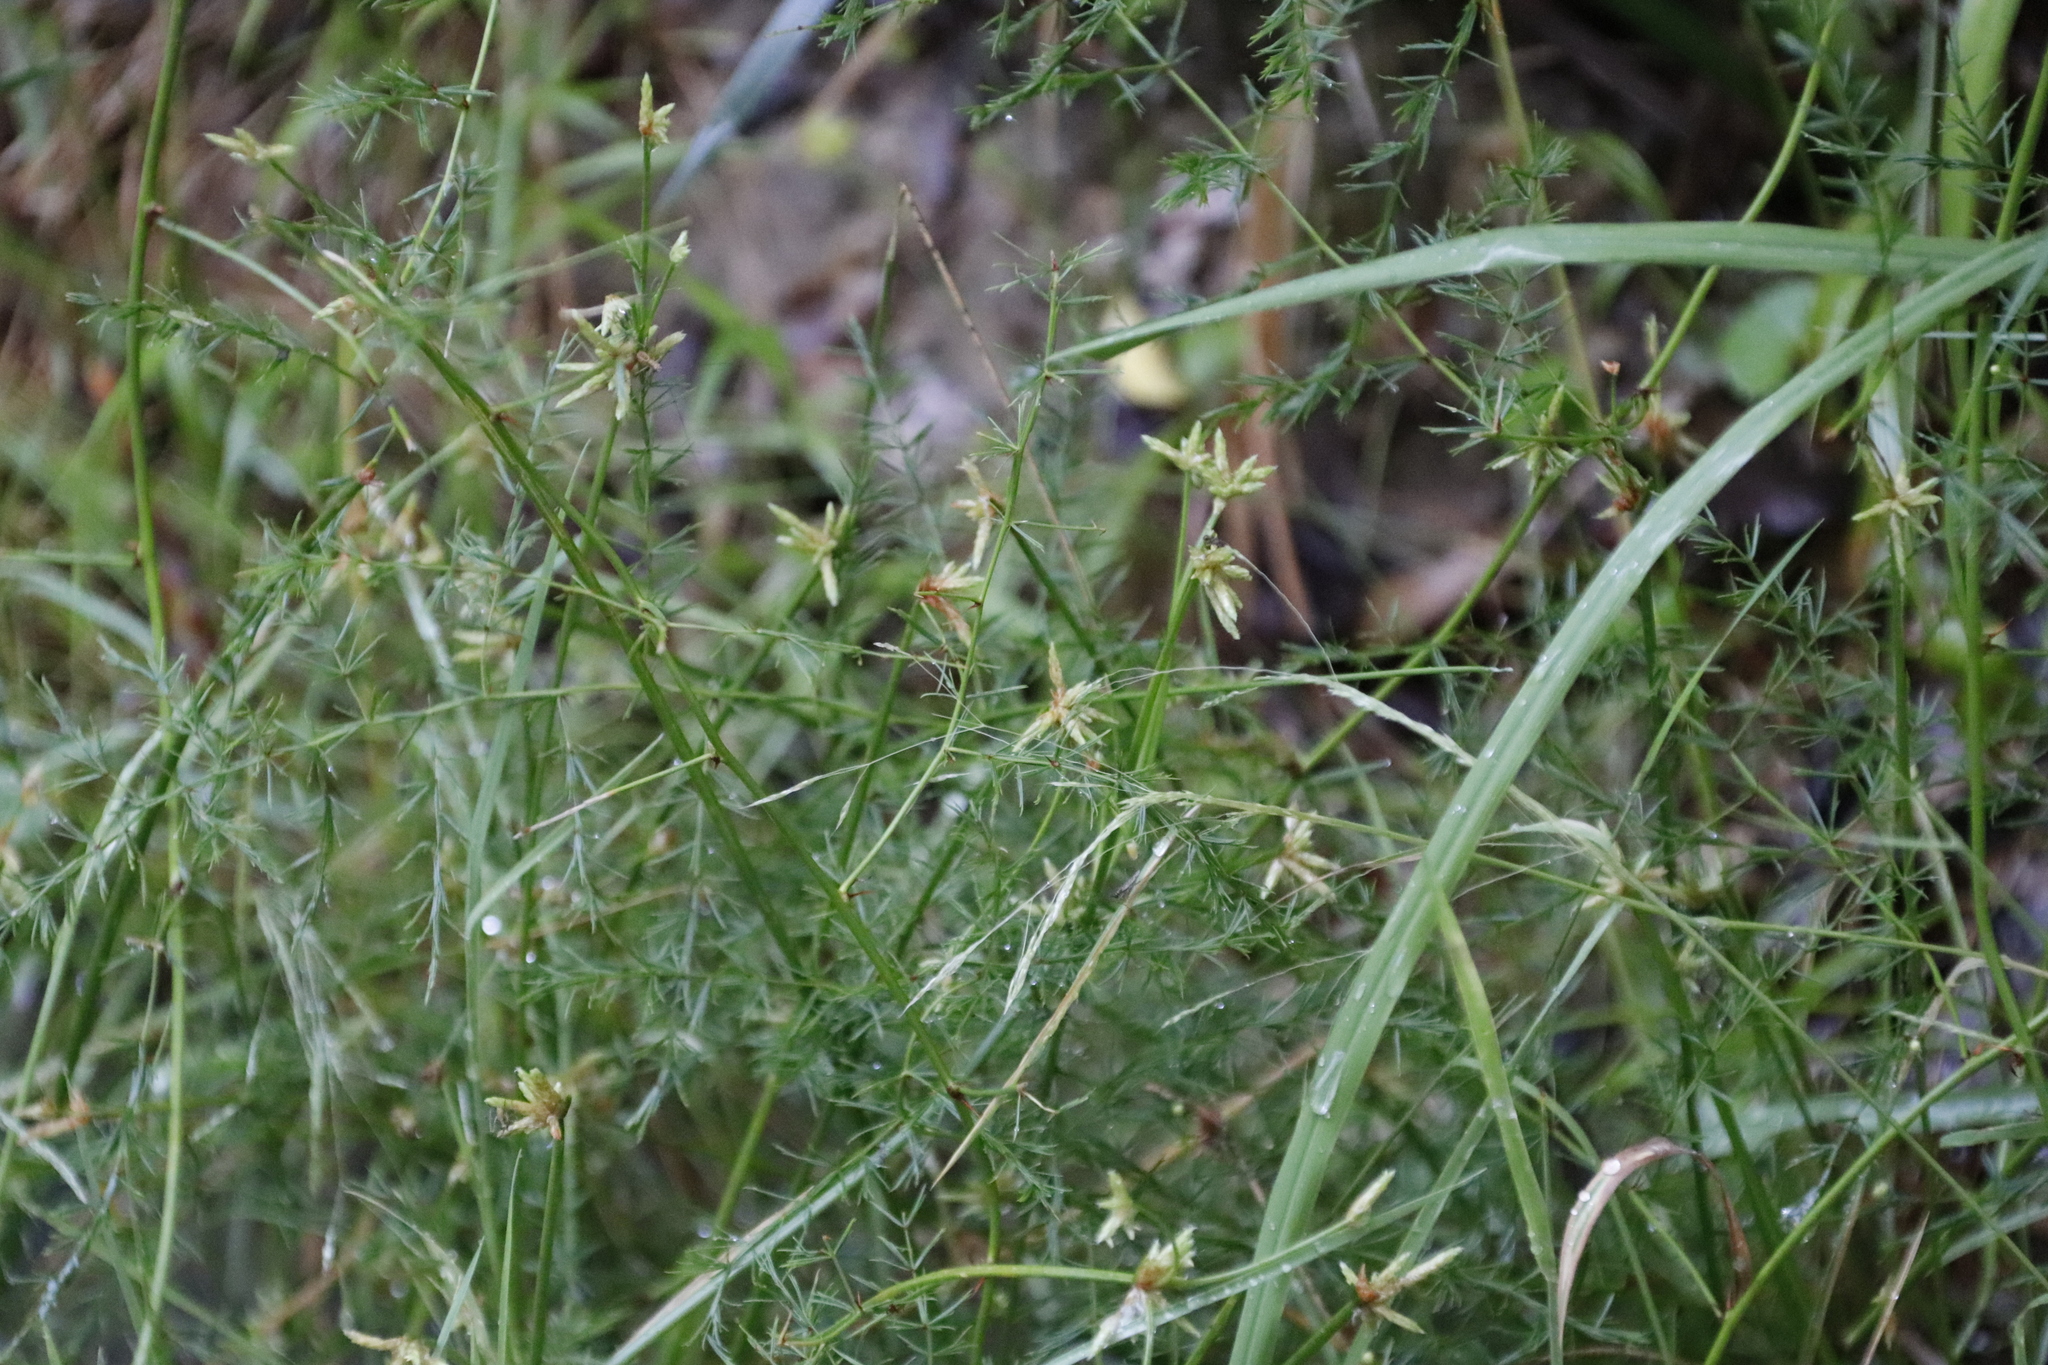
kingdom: Plantae
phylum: Tracheophyta
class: Liliopsida
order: Poales
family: Cyperaceae
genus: Isolepis
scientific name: Isolepis prolifera
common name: Proliferating bulrush
